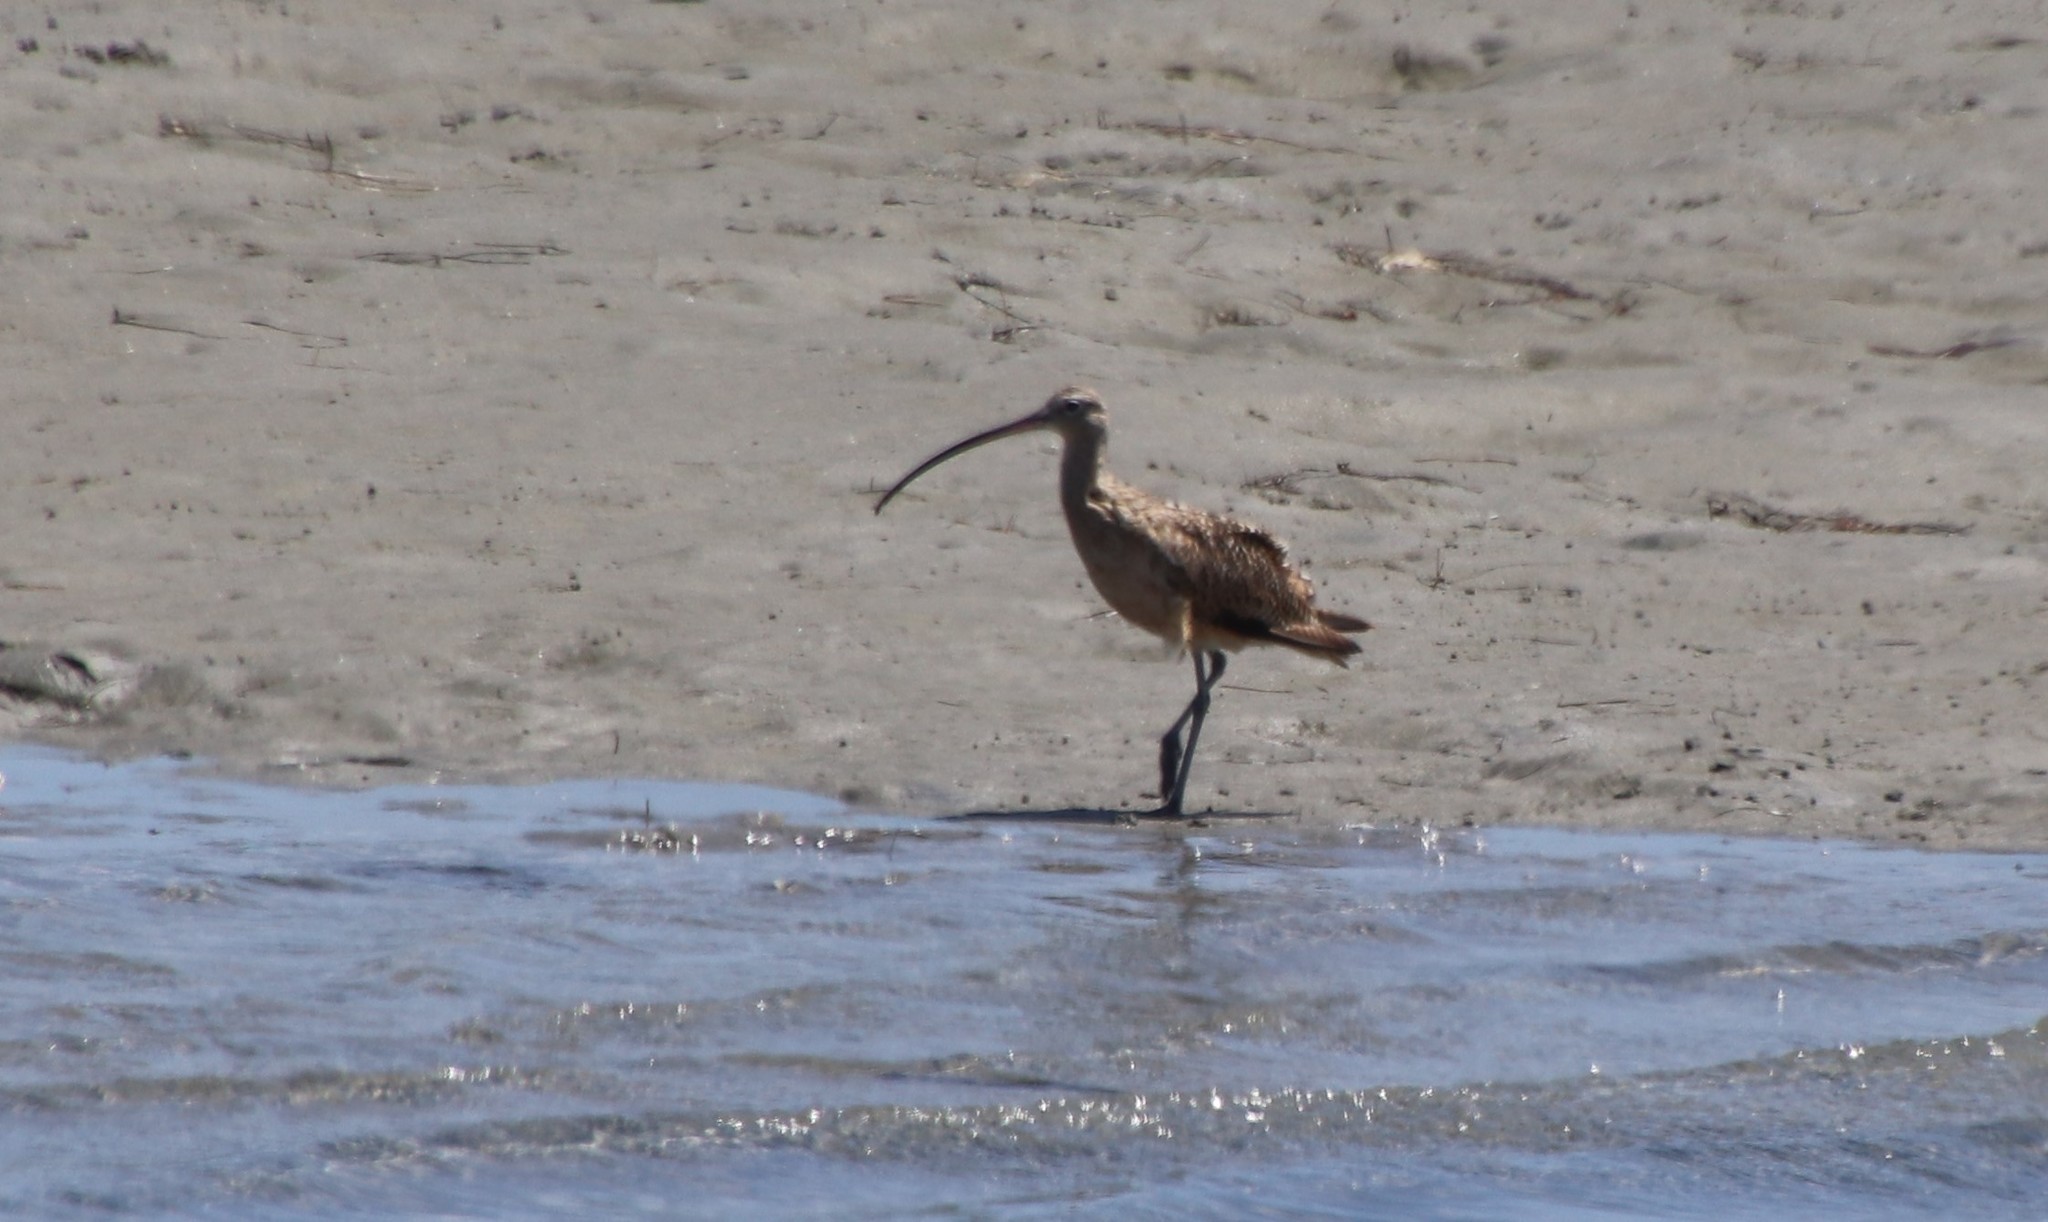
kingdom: Animalia
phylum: Chordata
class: Aves
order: Charadriiformes
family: Scolopacidae
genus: Numenius
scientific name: Numenius americanus
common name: Long-billed curlew
